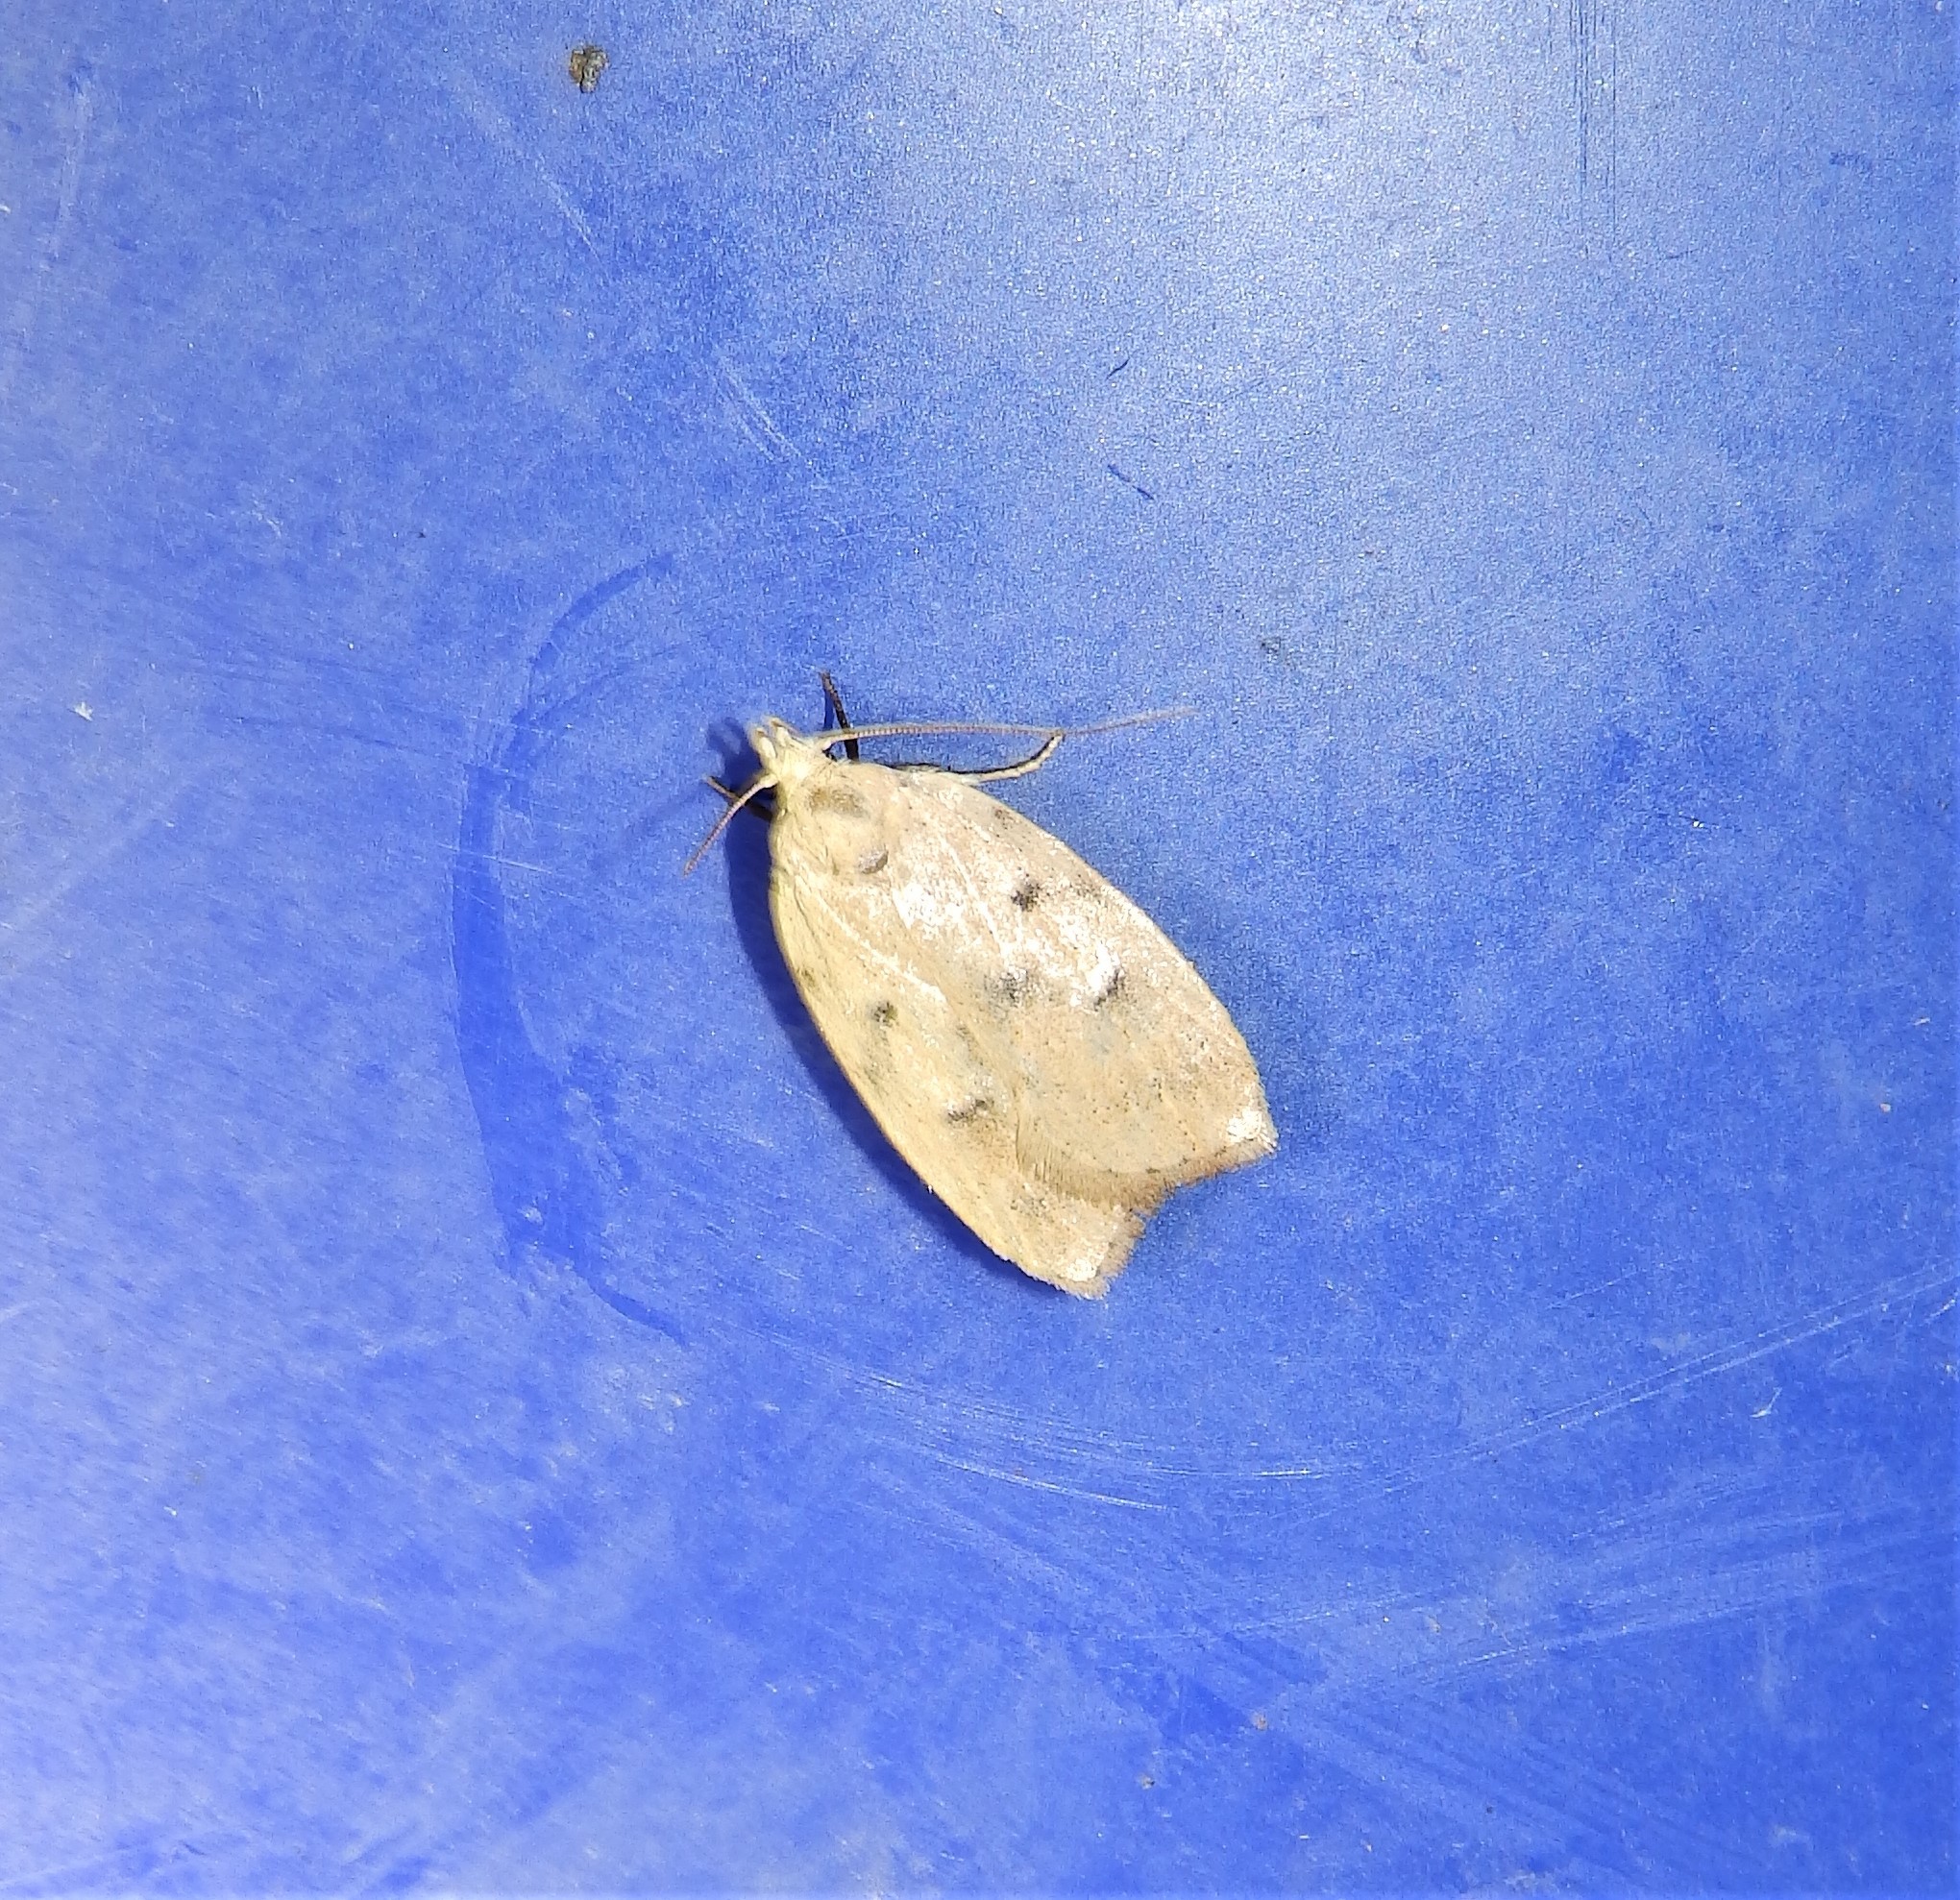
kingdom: Animalia
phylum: Arthropoda
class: Insecta
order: Lepidoptera
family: Peleopodidae
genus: Machimia
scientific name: Machimia tentoriferella
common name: Gold-striped leaftier moth
